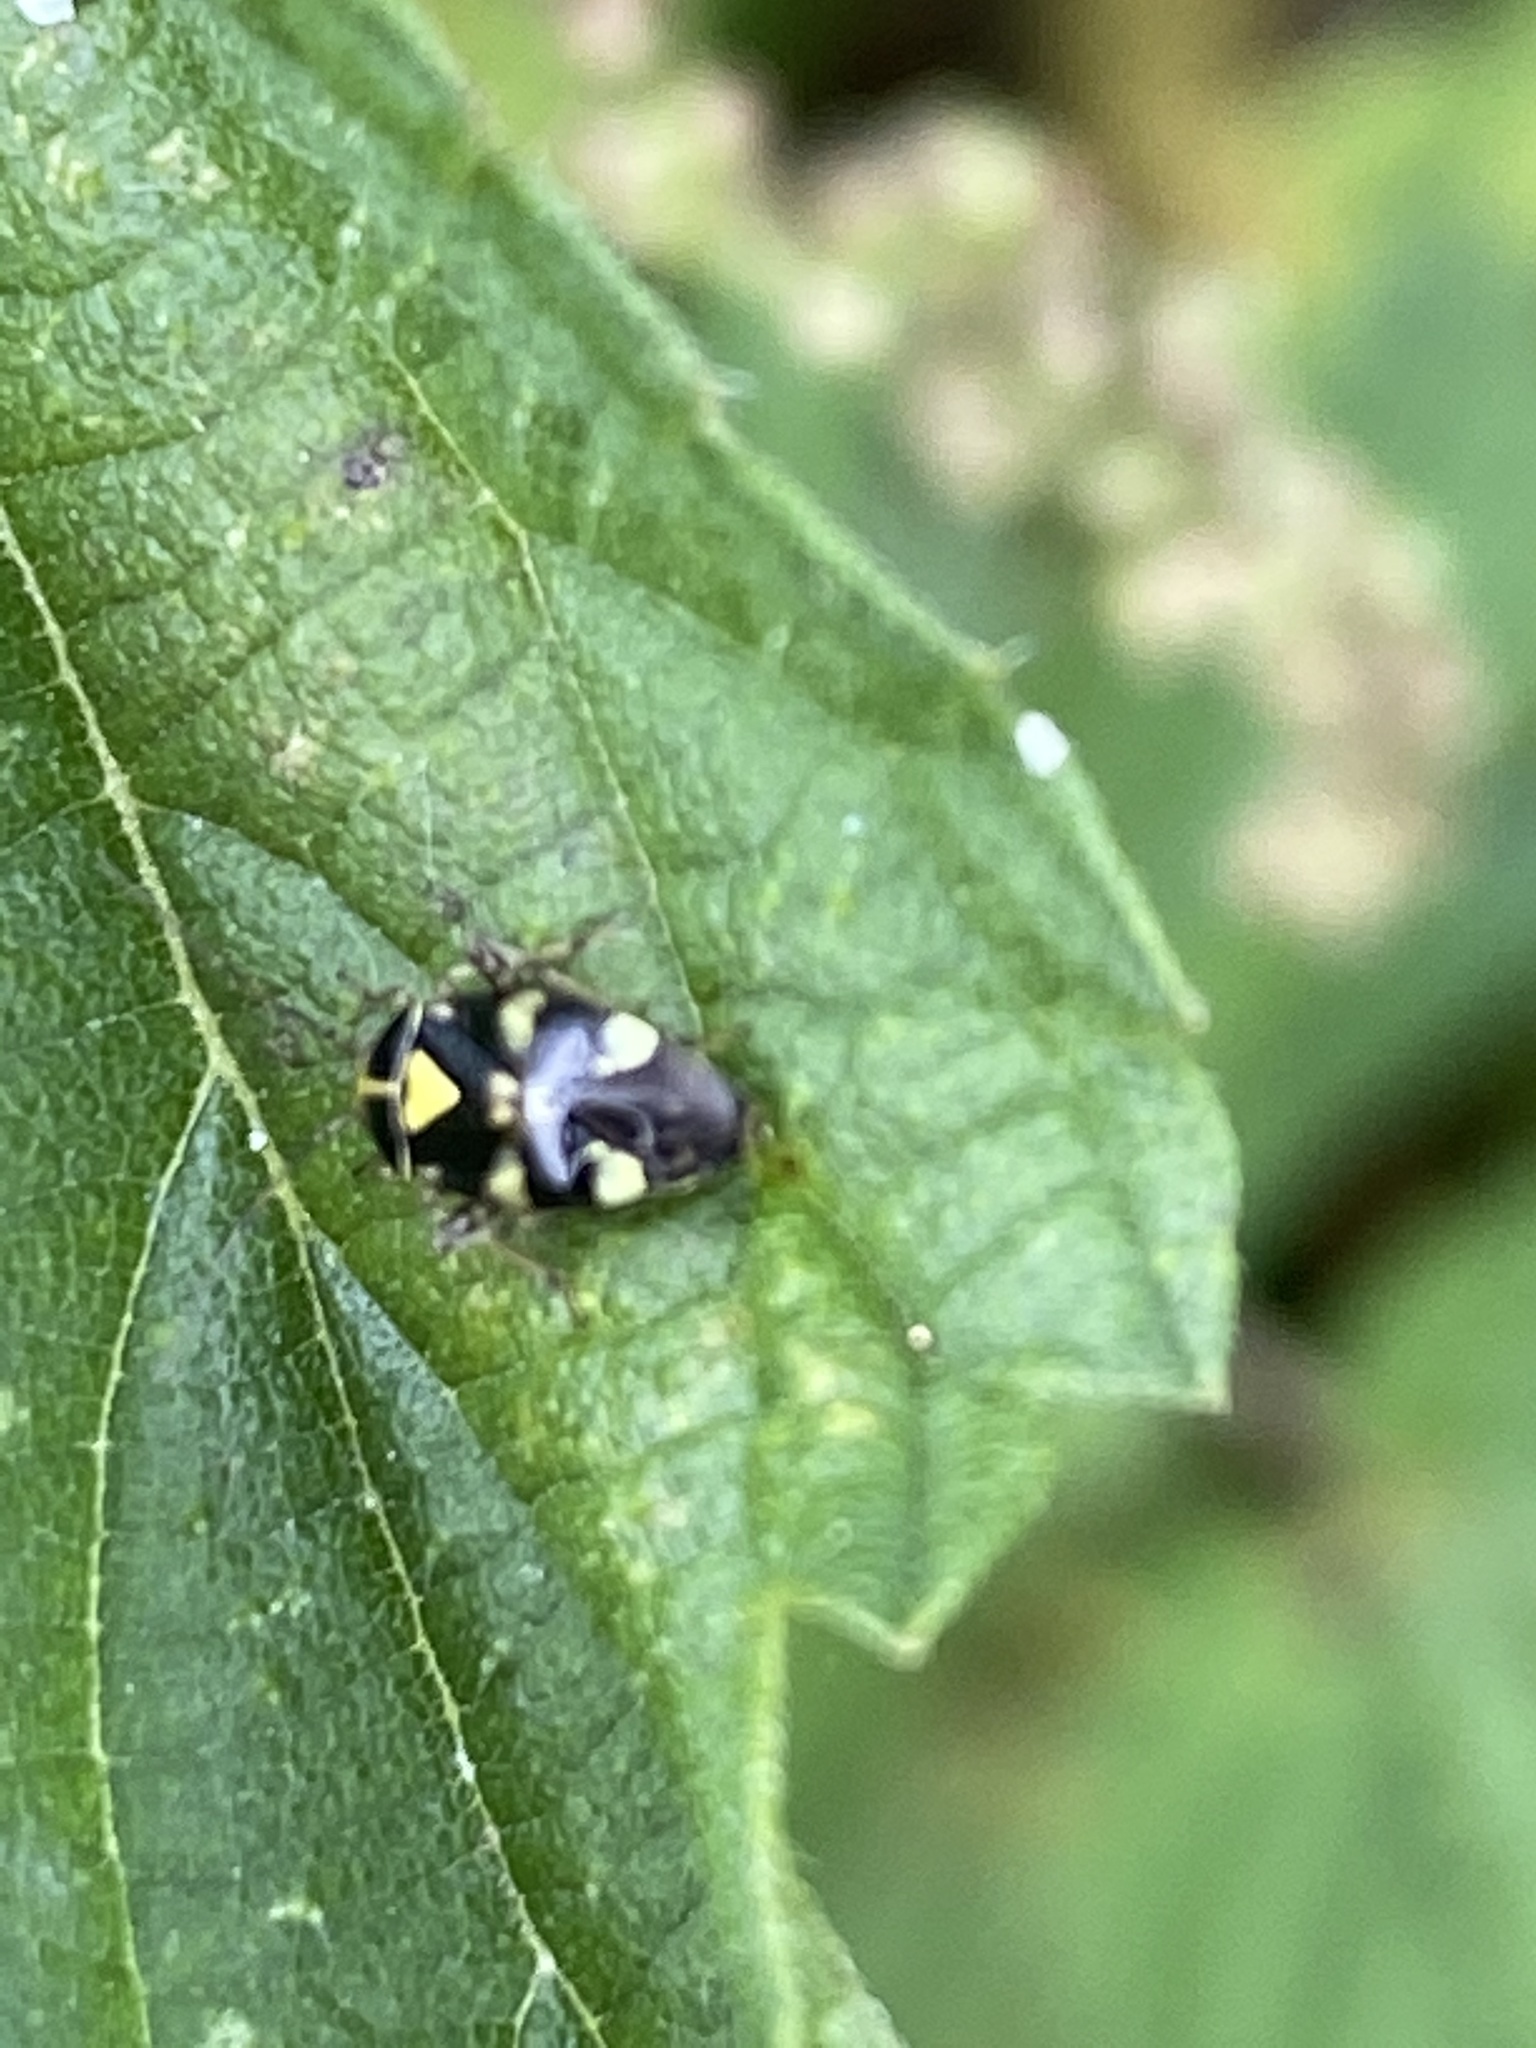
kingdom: Animalia
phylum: Arthropoda
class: Insecta
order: Hemiptera
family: Miridae
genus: Liocoris
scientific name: Liocoris tripustulatus
